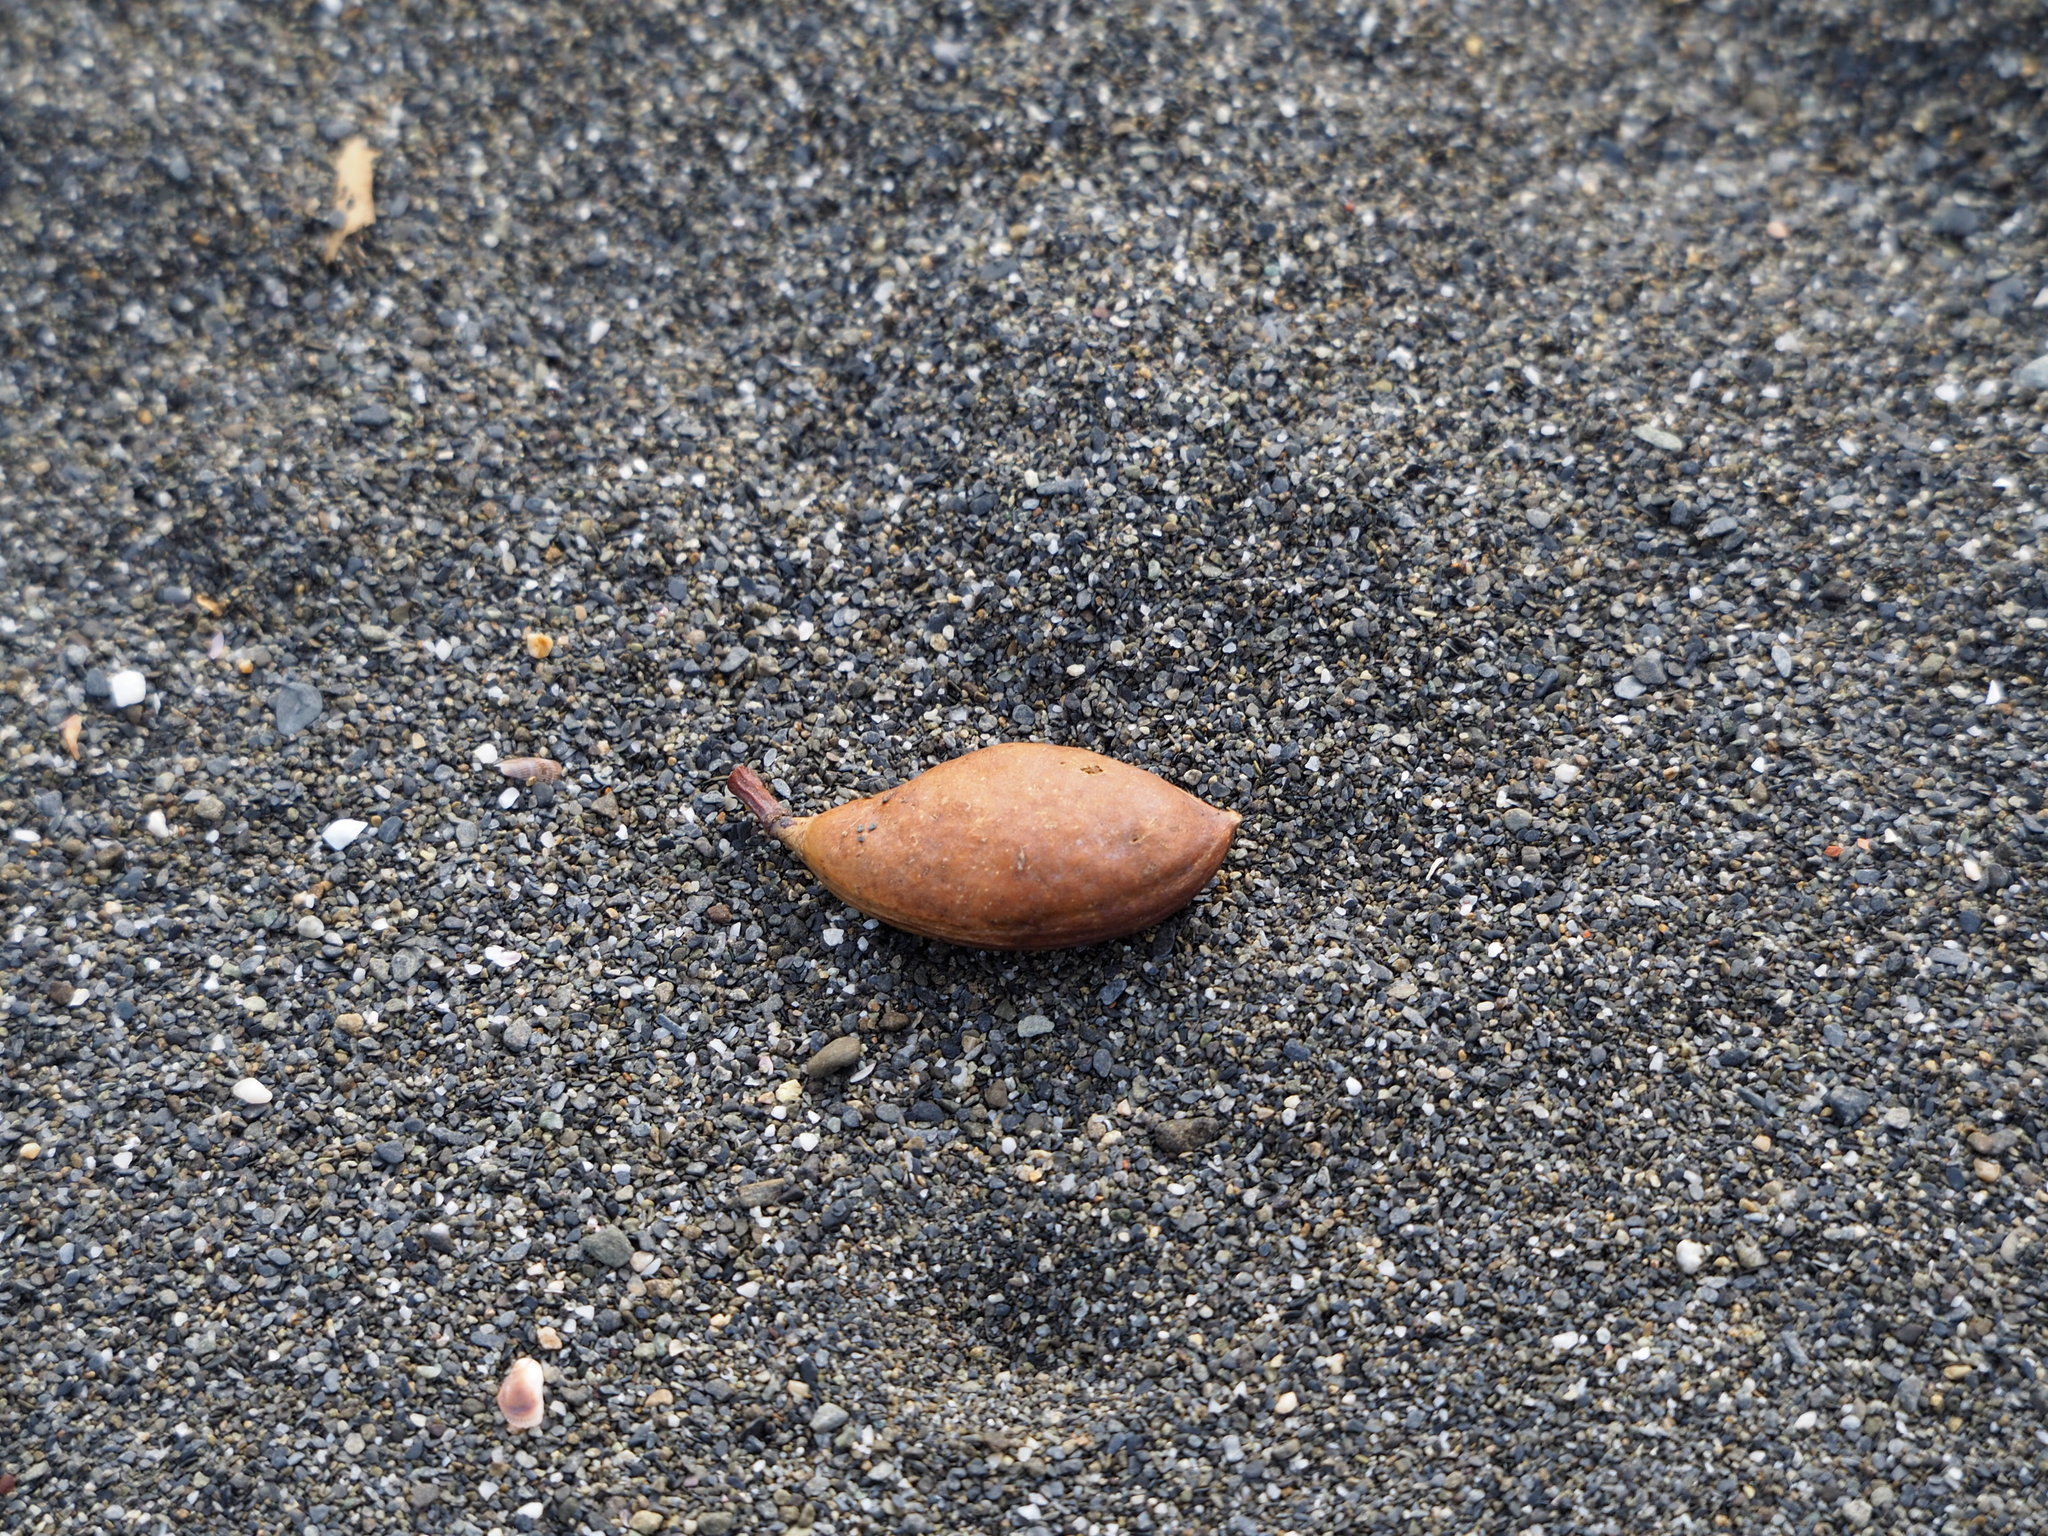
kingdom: Plantae
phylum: Tracheophyta
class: Magnoliopsida
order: Fabales
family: Fabaceae
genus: Pongamia
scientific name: Pongamia pinnata
